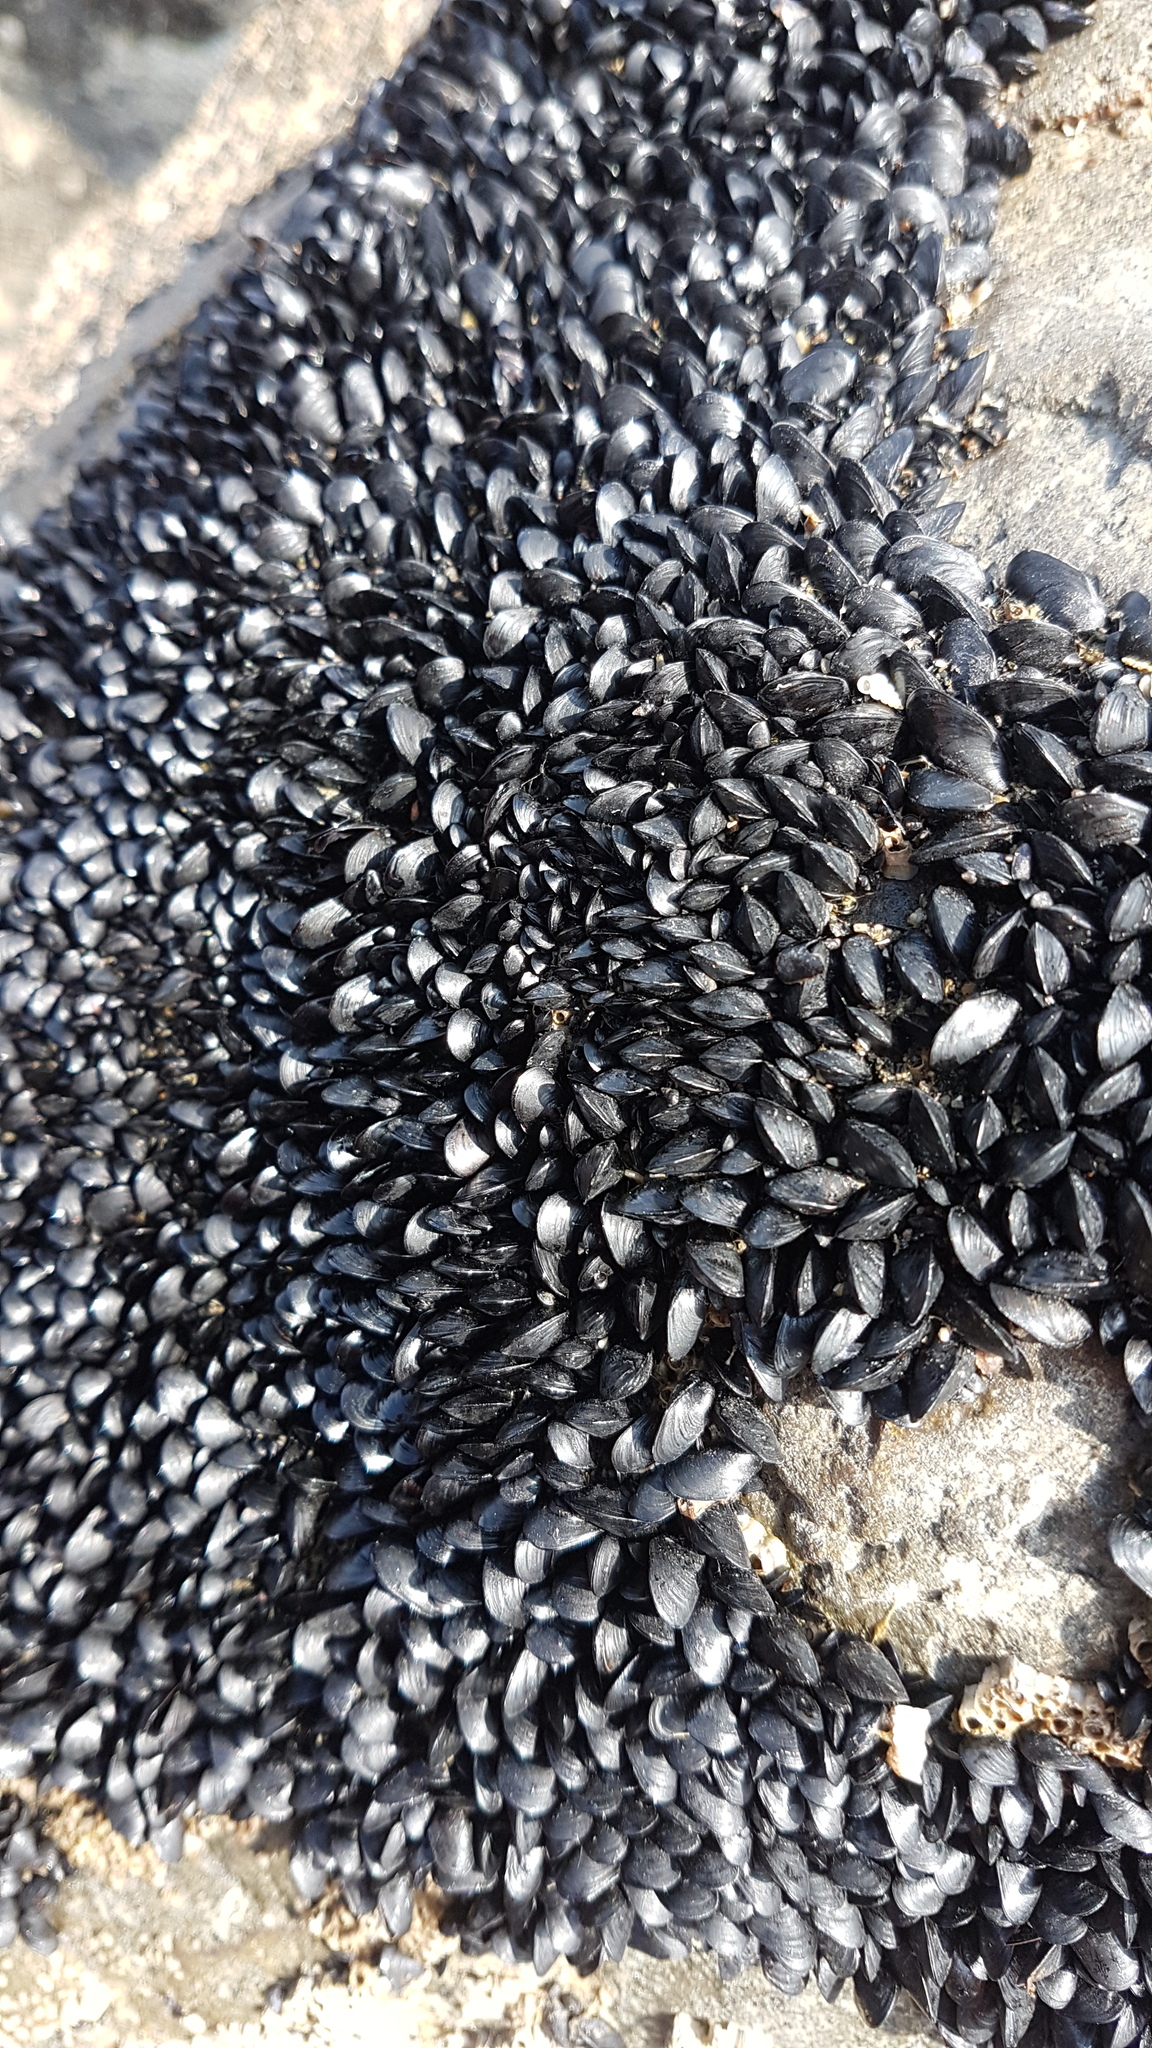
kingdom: Animalia
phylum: Mollusca
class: Bivalvia
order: Mytilida
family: Mytilidae
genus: Xenostrobus
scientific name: Xenostrobus neozelanicus
